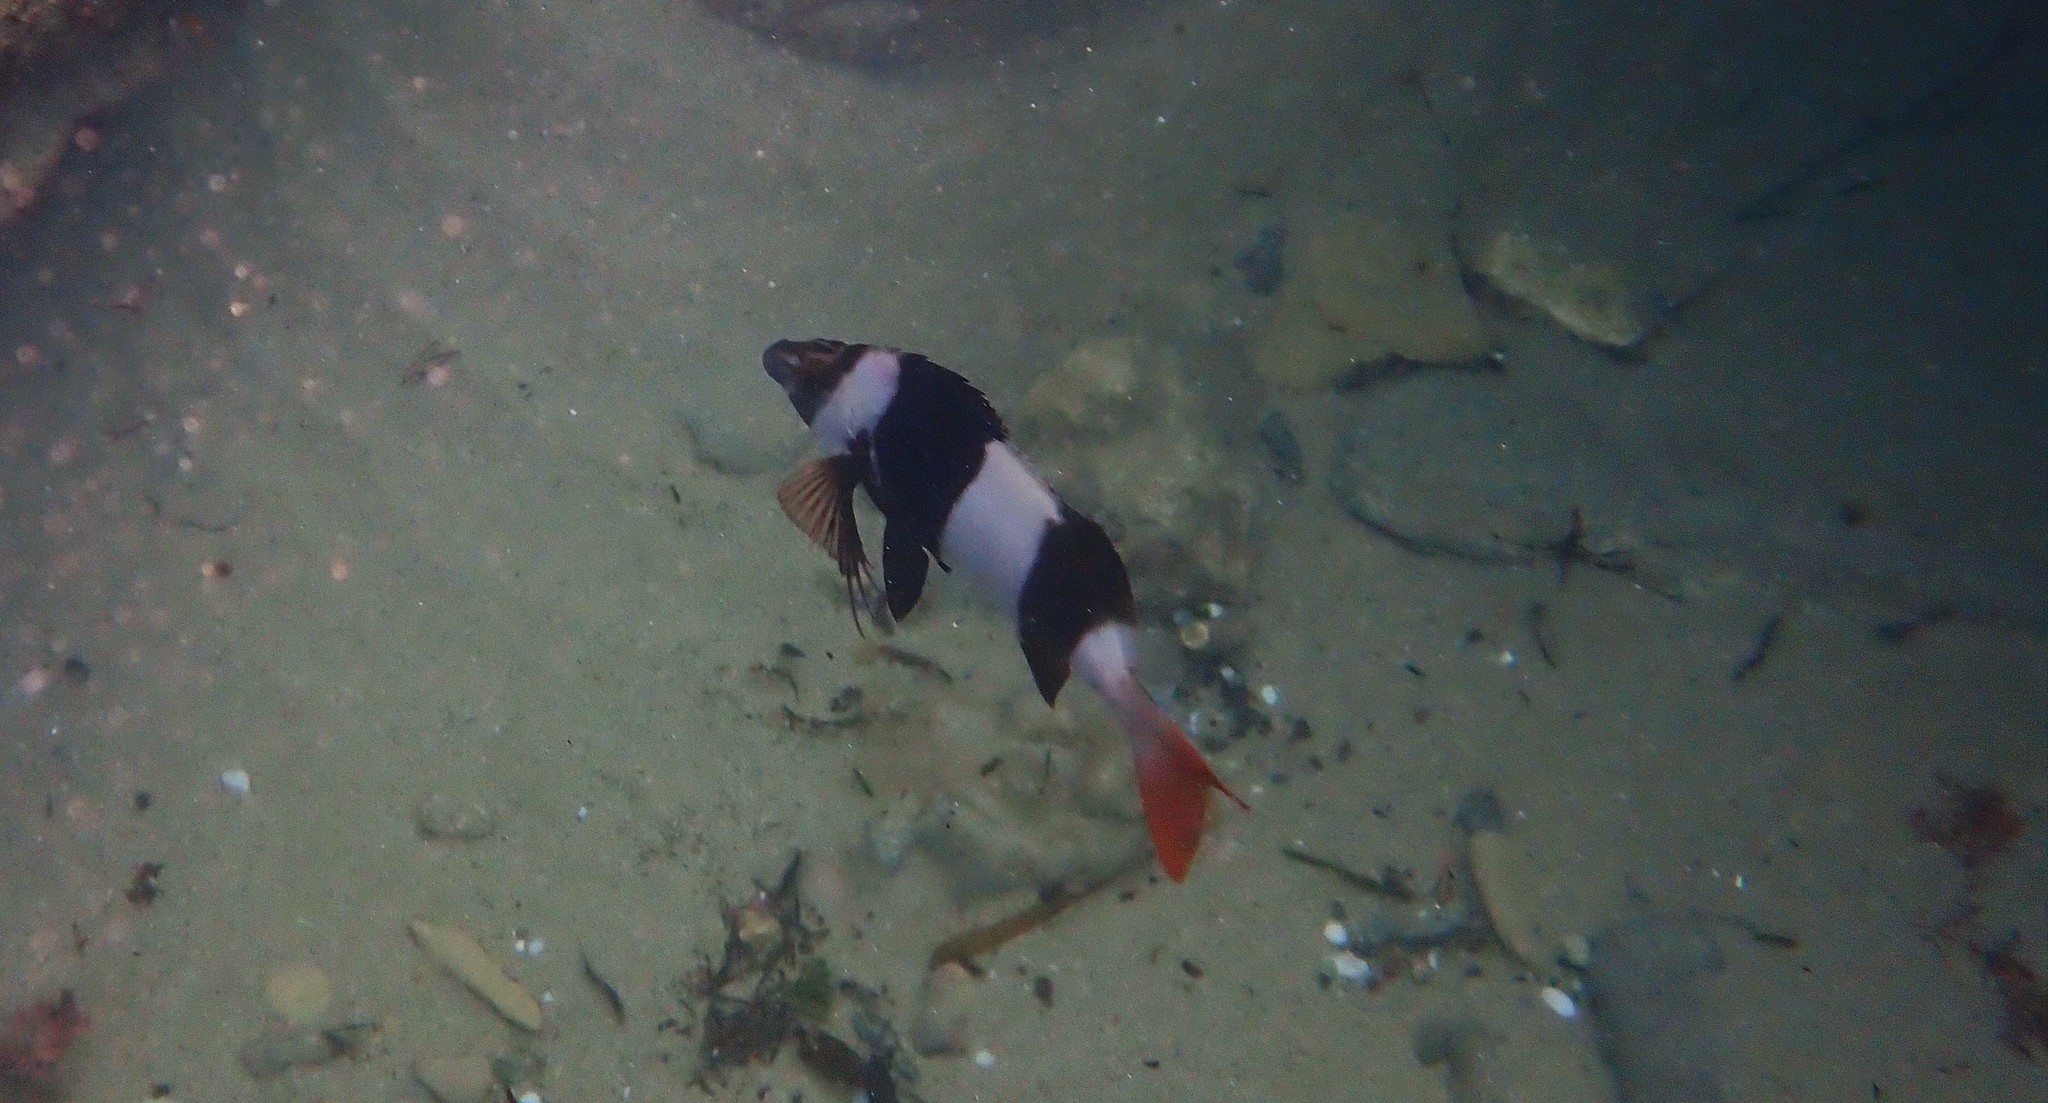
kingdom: Animalia
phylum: Chordata
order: Perciformes
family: Latridae
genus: Pseudogoniistius
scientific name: Pseudogoniistius nigripes
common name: Black-striped morwong
